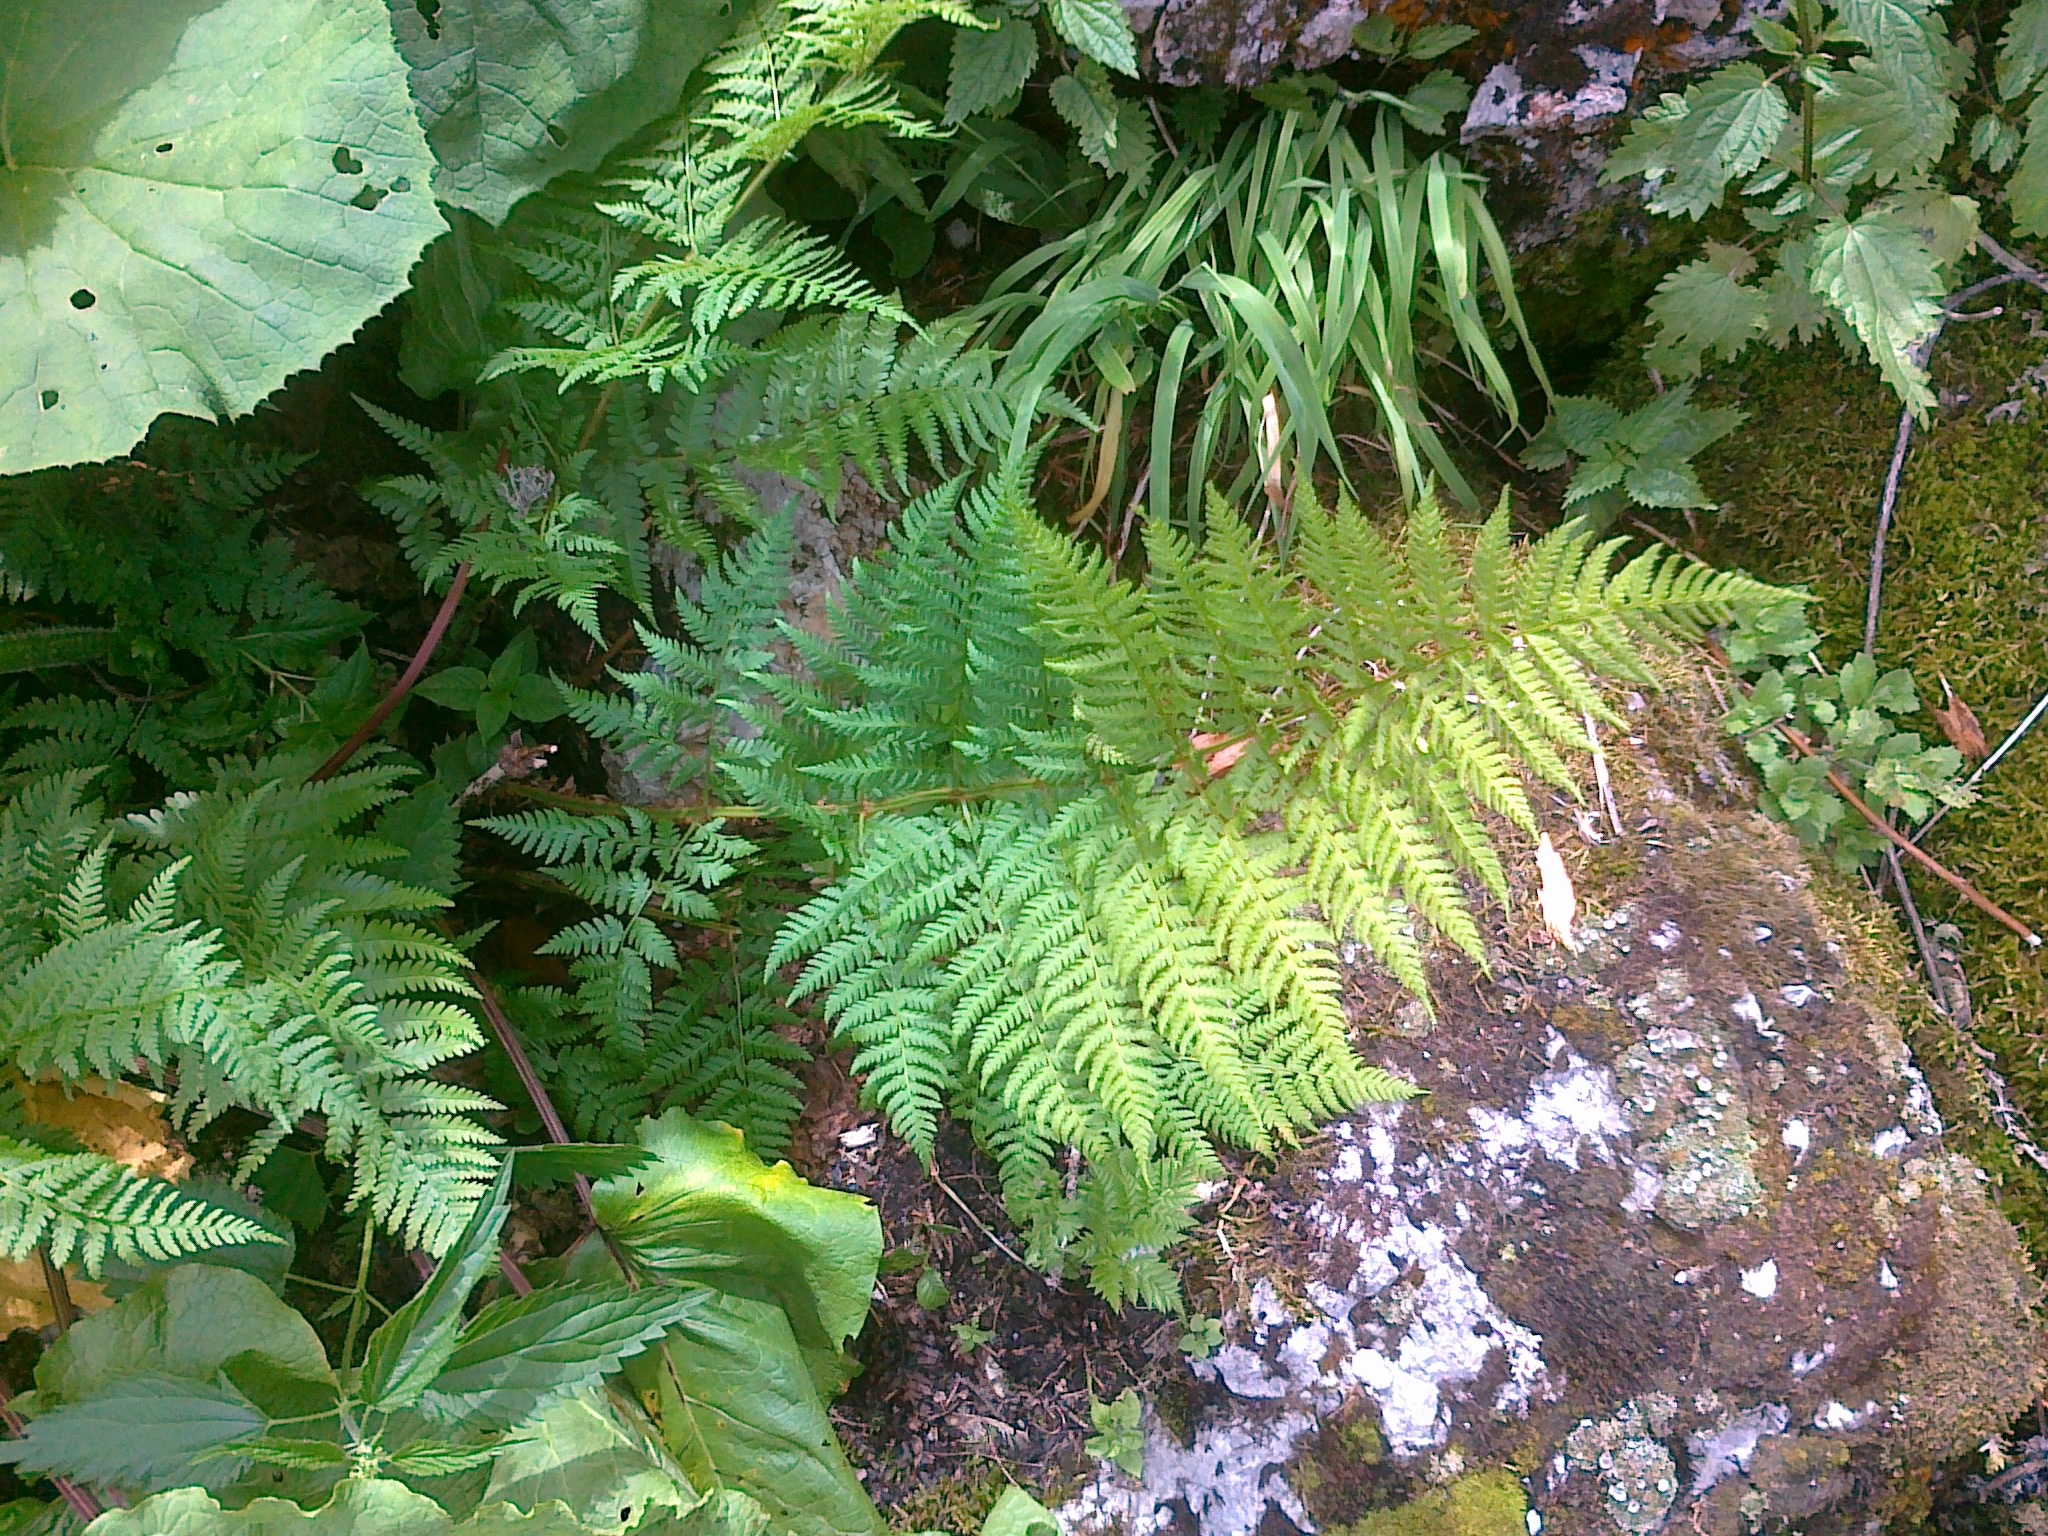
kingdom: Plantae
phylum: Tracheophyta
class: Polypodiopsida
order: Polypodiales
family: Dryopteridaceae
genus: Dryopteris
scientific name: Dryopteris expansa
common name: Northern buckler fern
